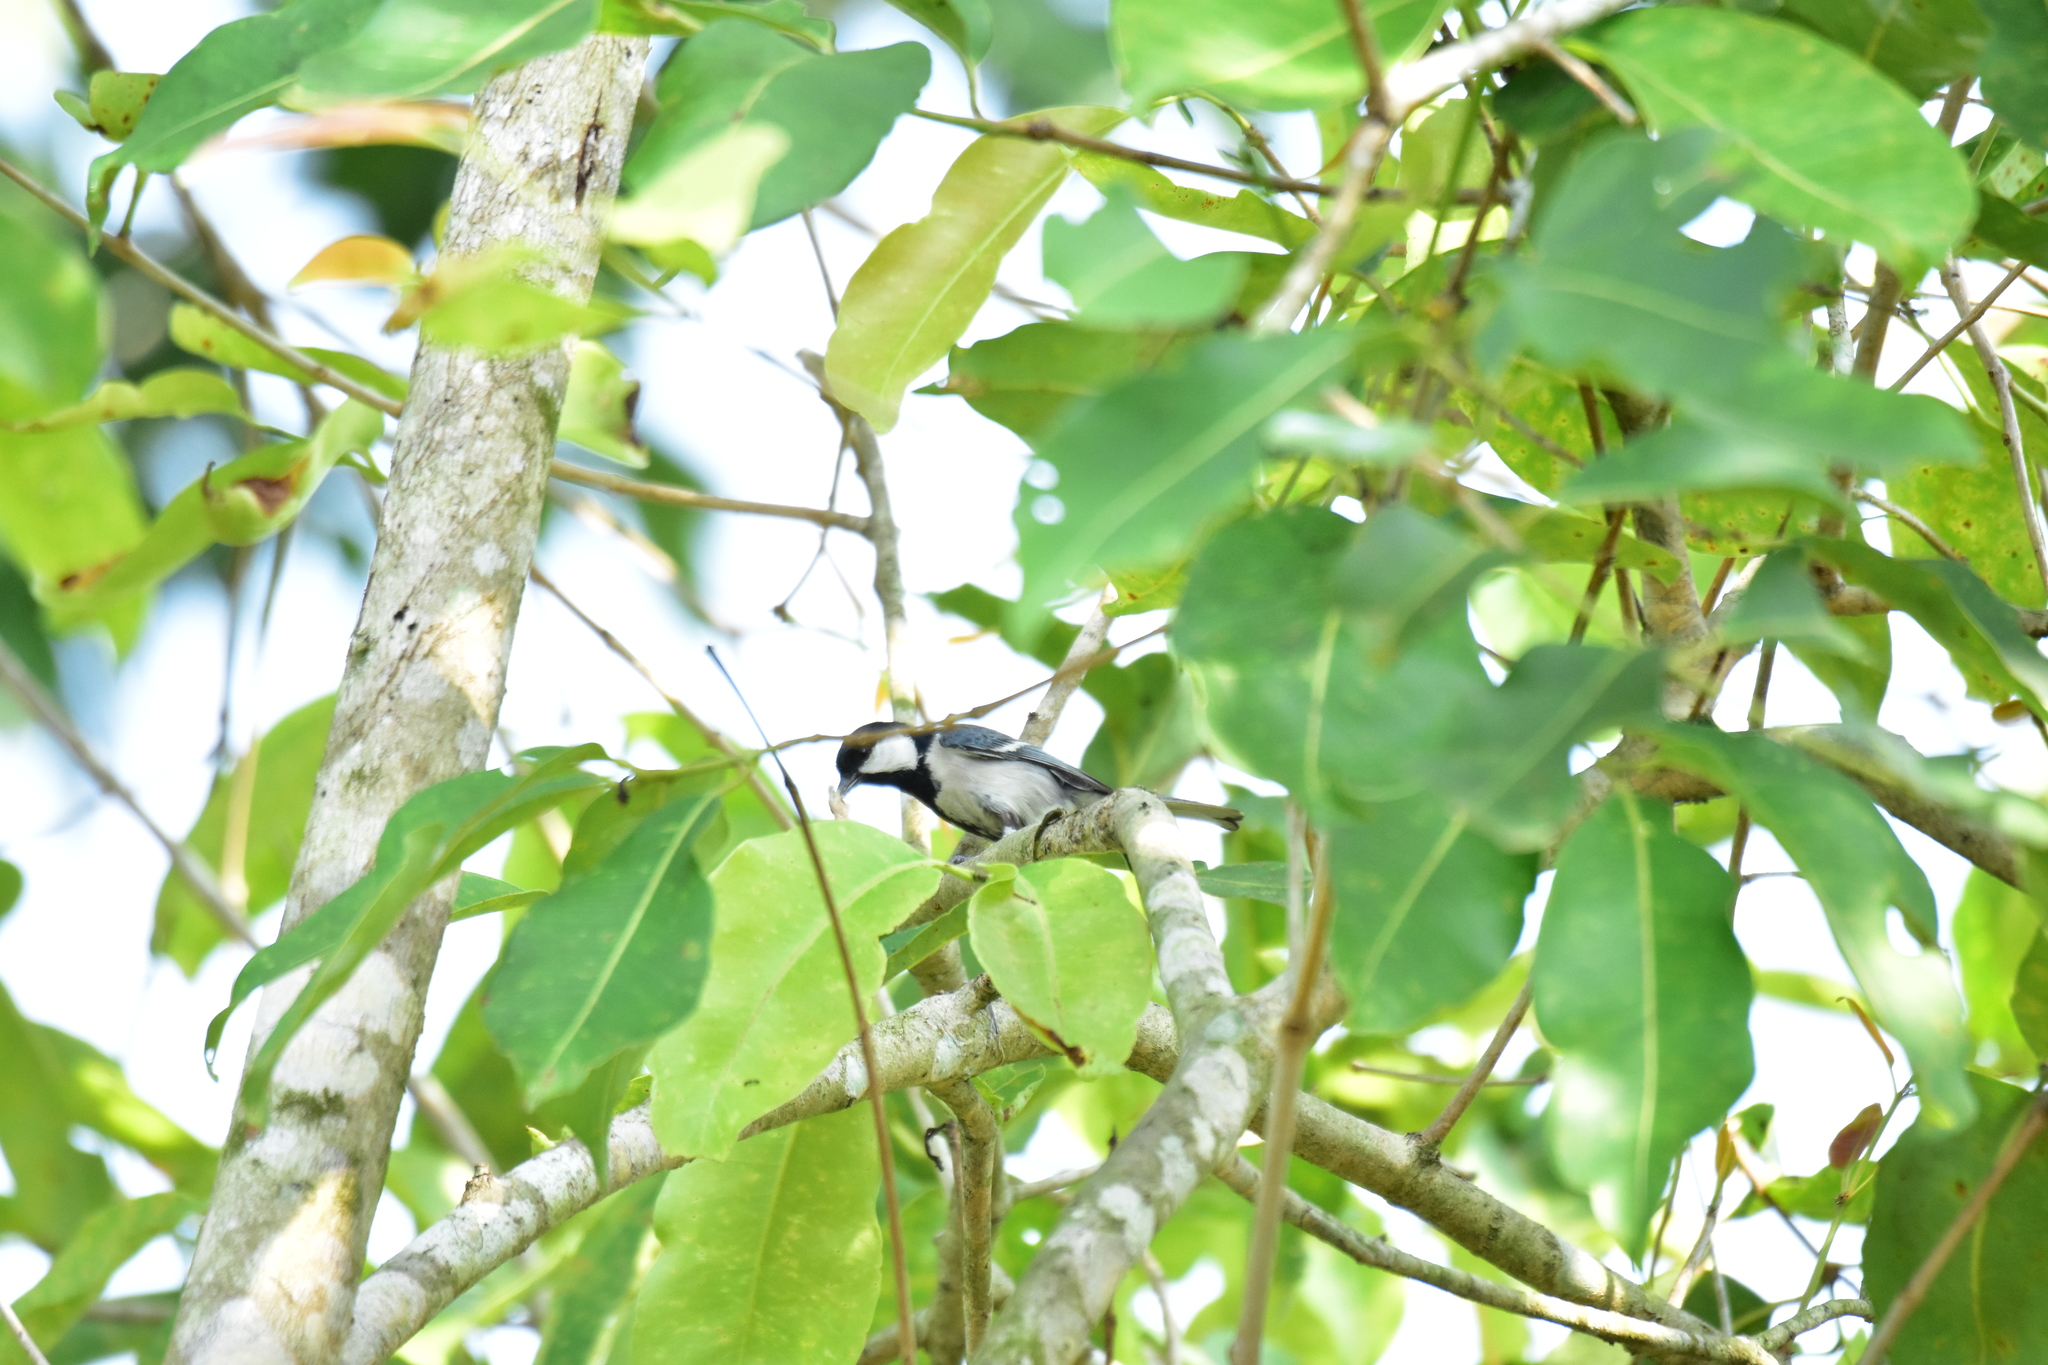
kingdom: Animalia
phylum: Chordata
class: Aves
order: Passeriformes
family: Paridae
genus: Parus
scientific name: Parus cinereus
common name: Cinereous tit
